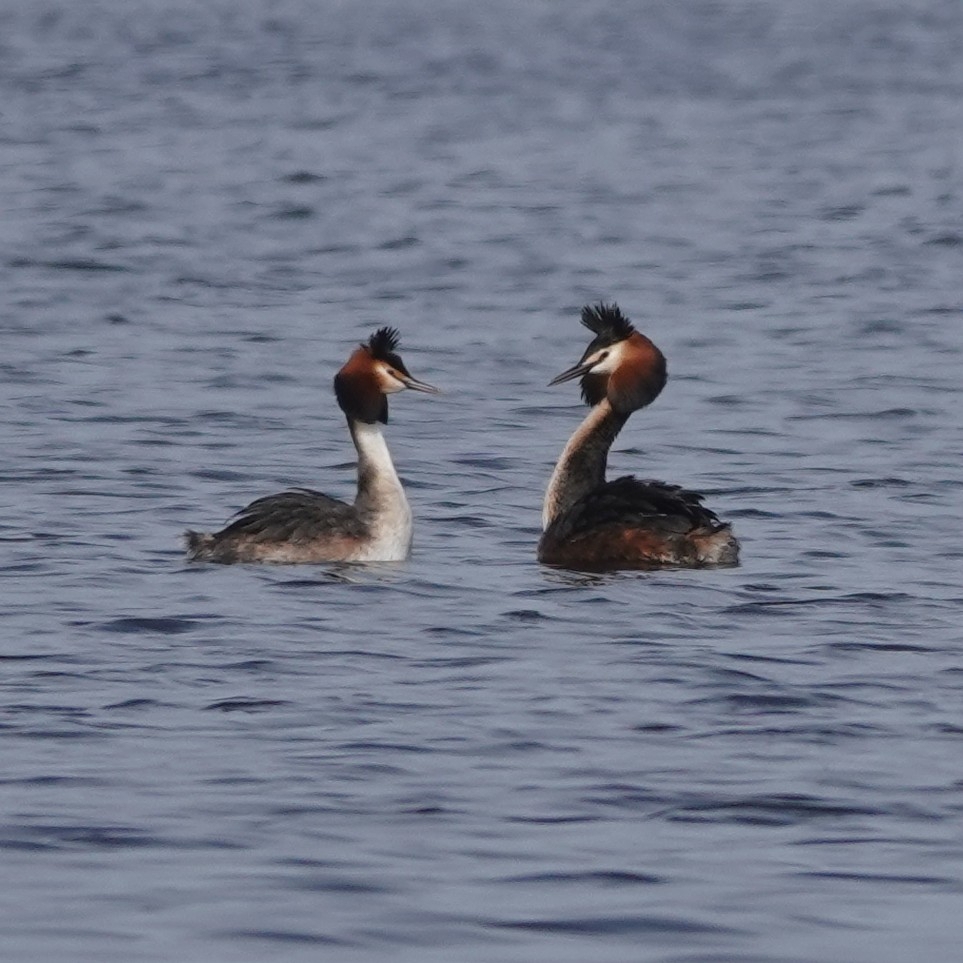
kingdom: Animalia
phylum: Chordata
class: Aves
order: Podicipediformes
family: Podicipedidae
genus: Podiceps
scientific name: Podiceps cristatus
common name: Great crested grebe
